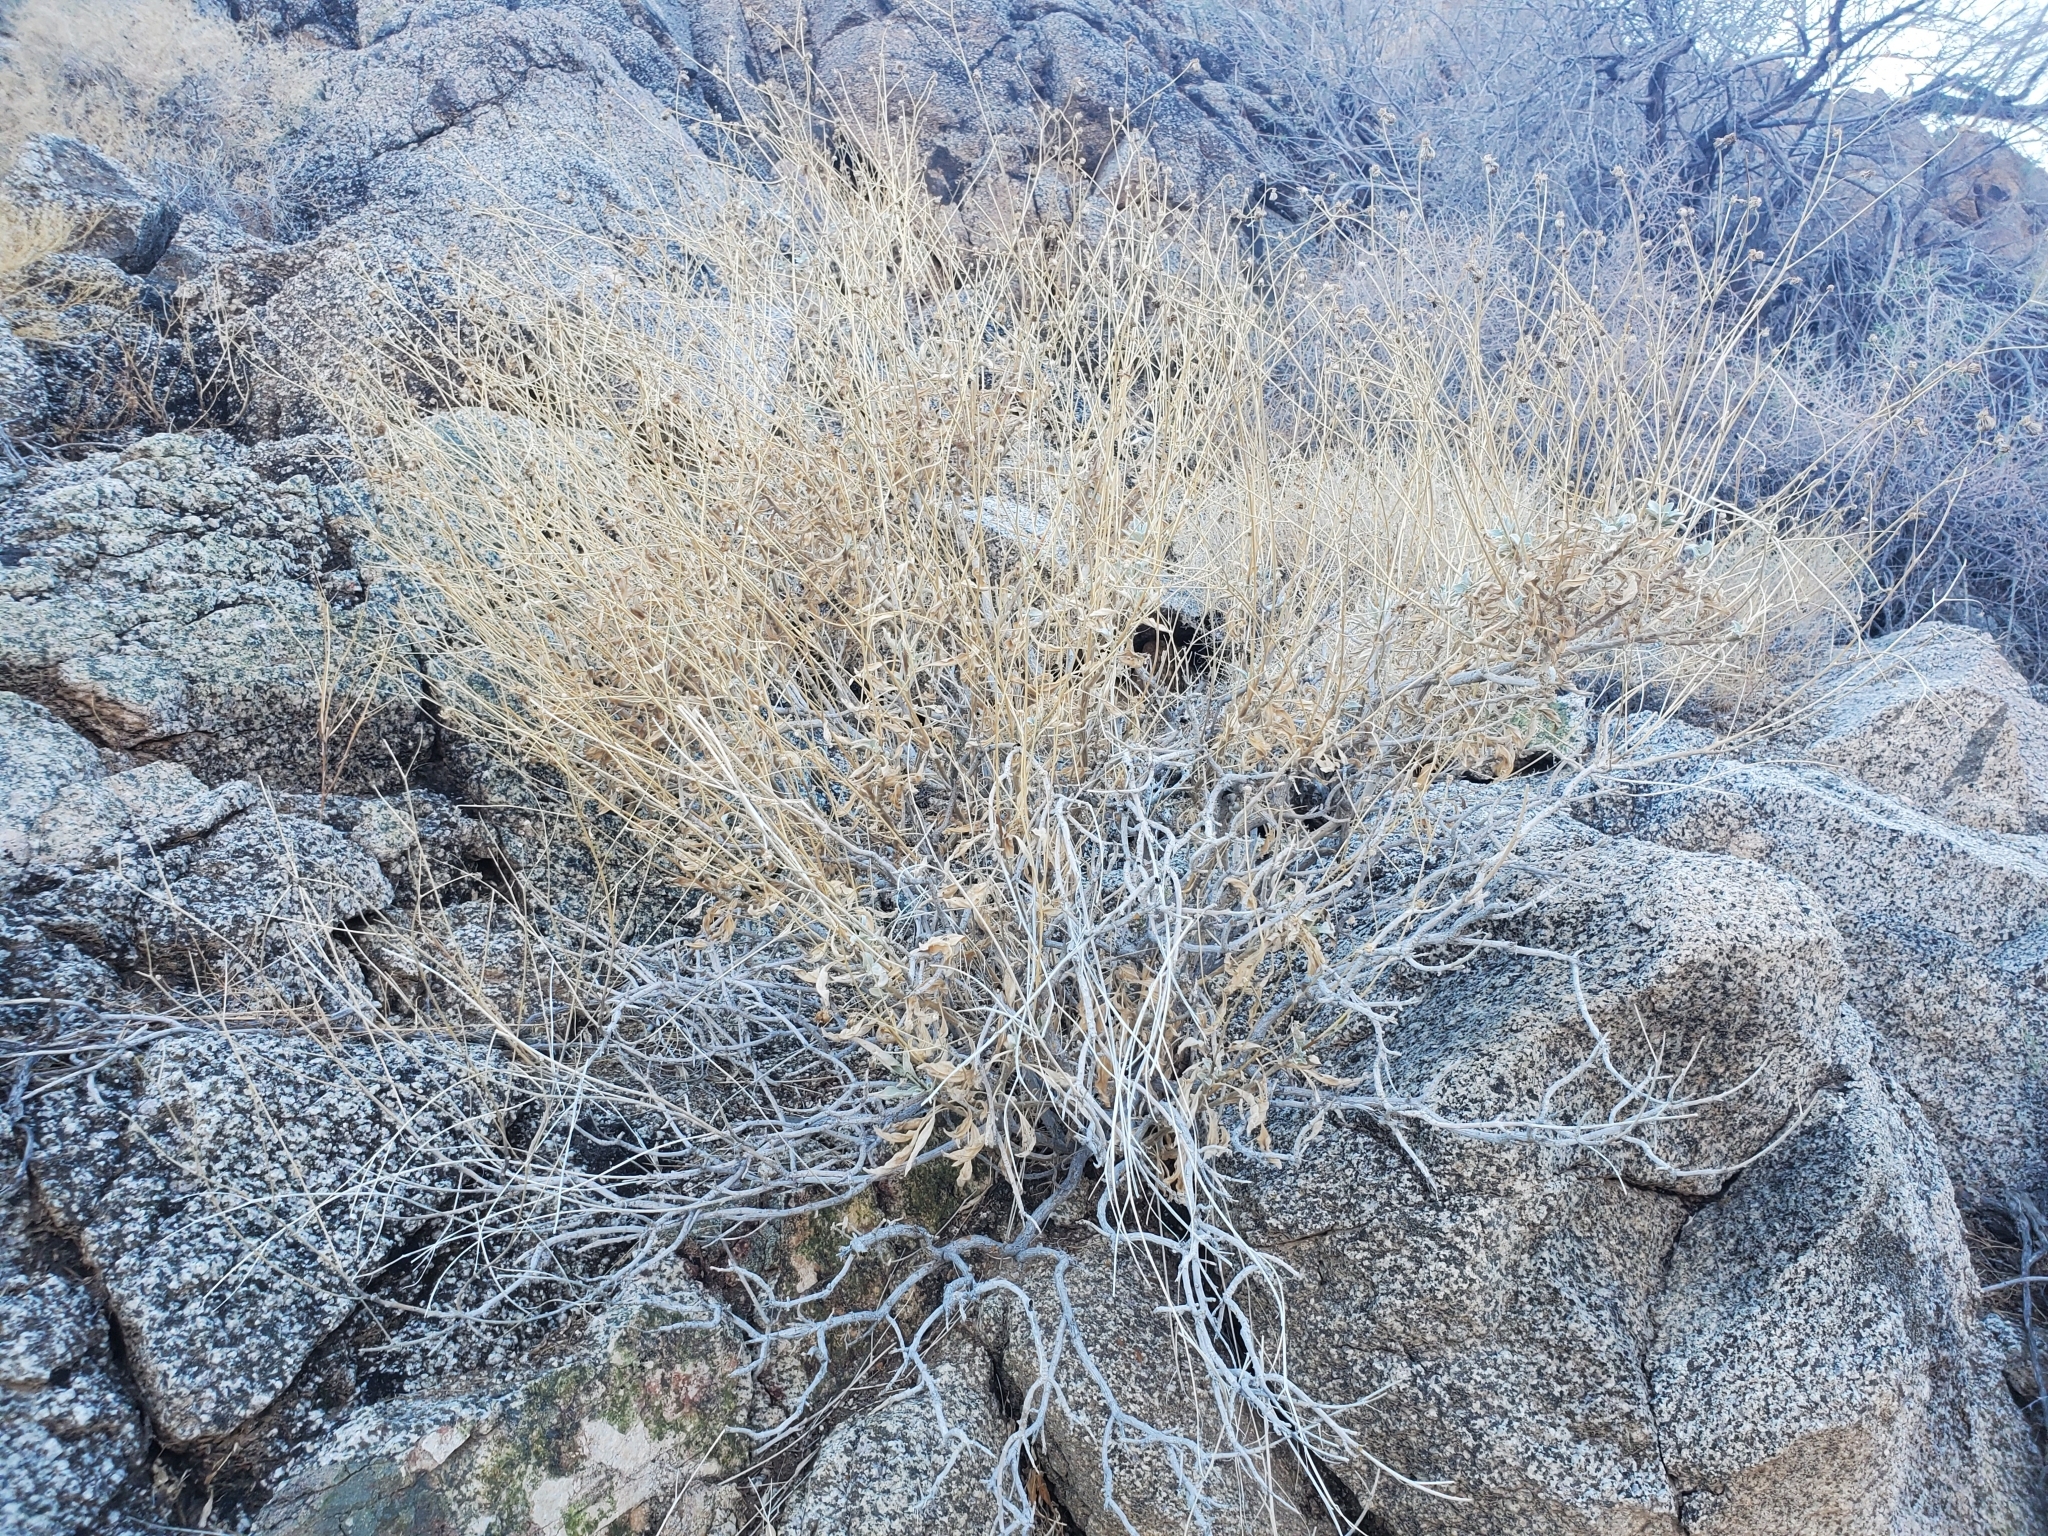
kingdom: Plantae
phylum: Tracheophyta
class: Magnoliopsida
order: Asterales
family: Asteraceae
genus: Encelia
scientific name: Encelia farinosa
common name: Brittlebush
